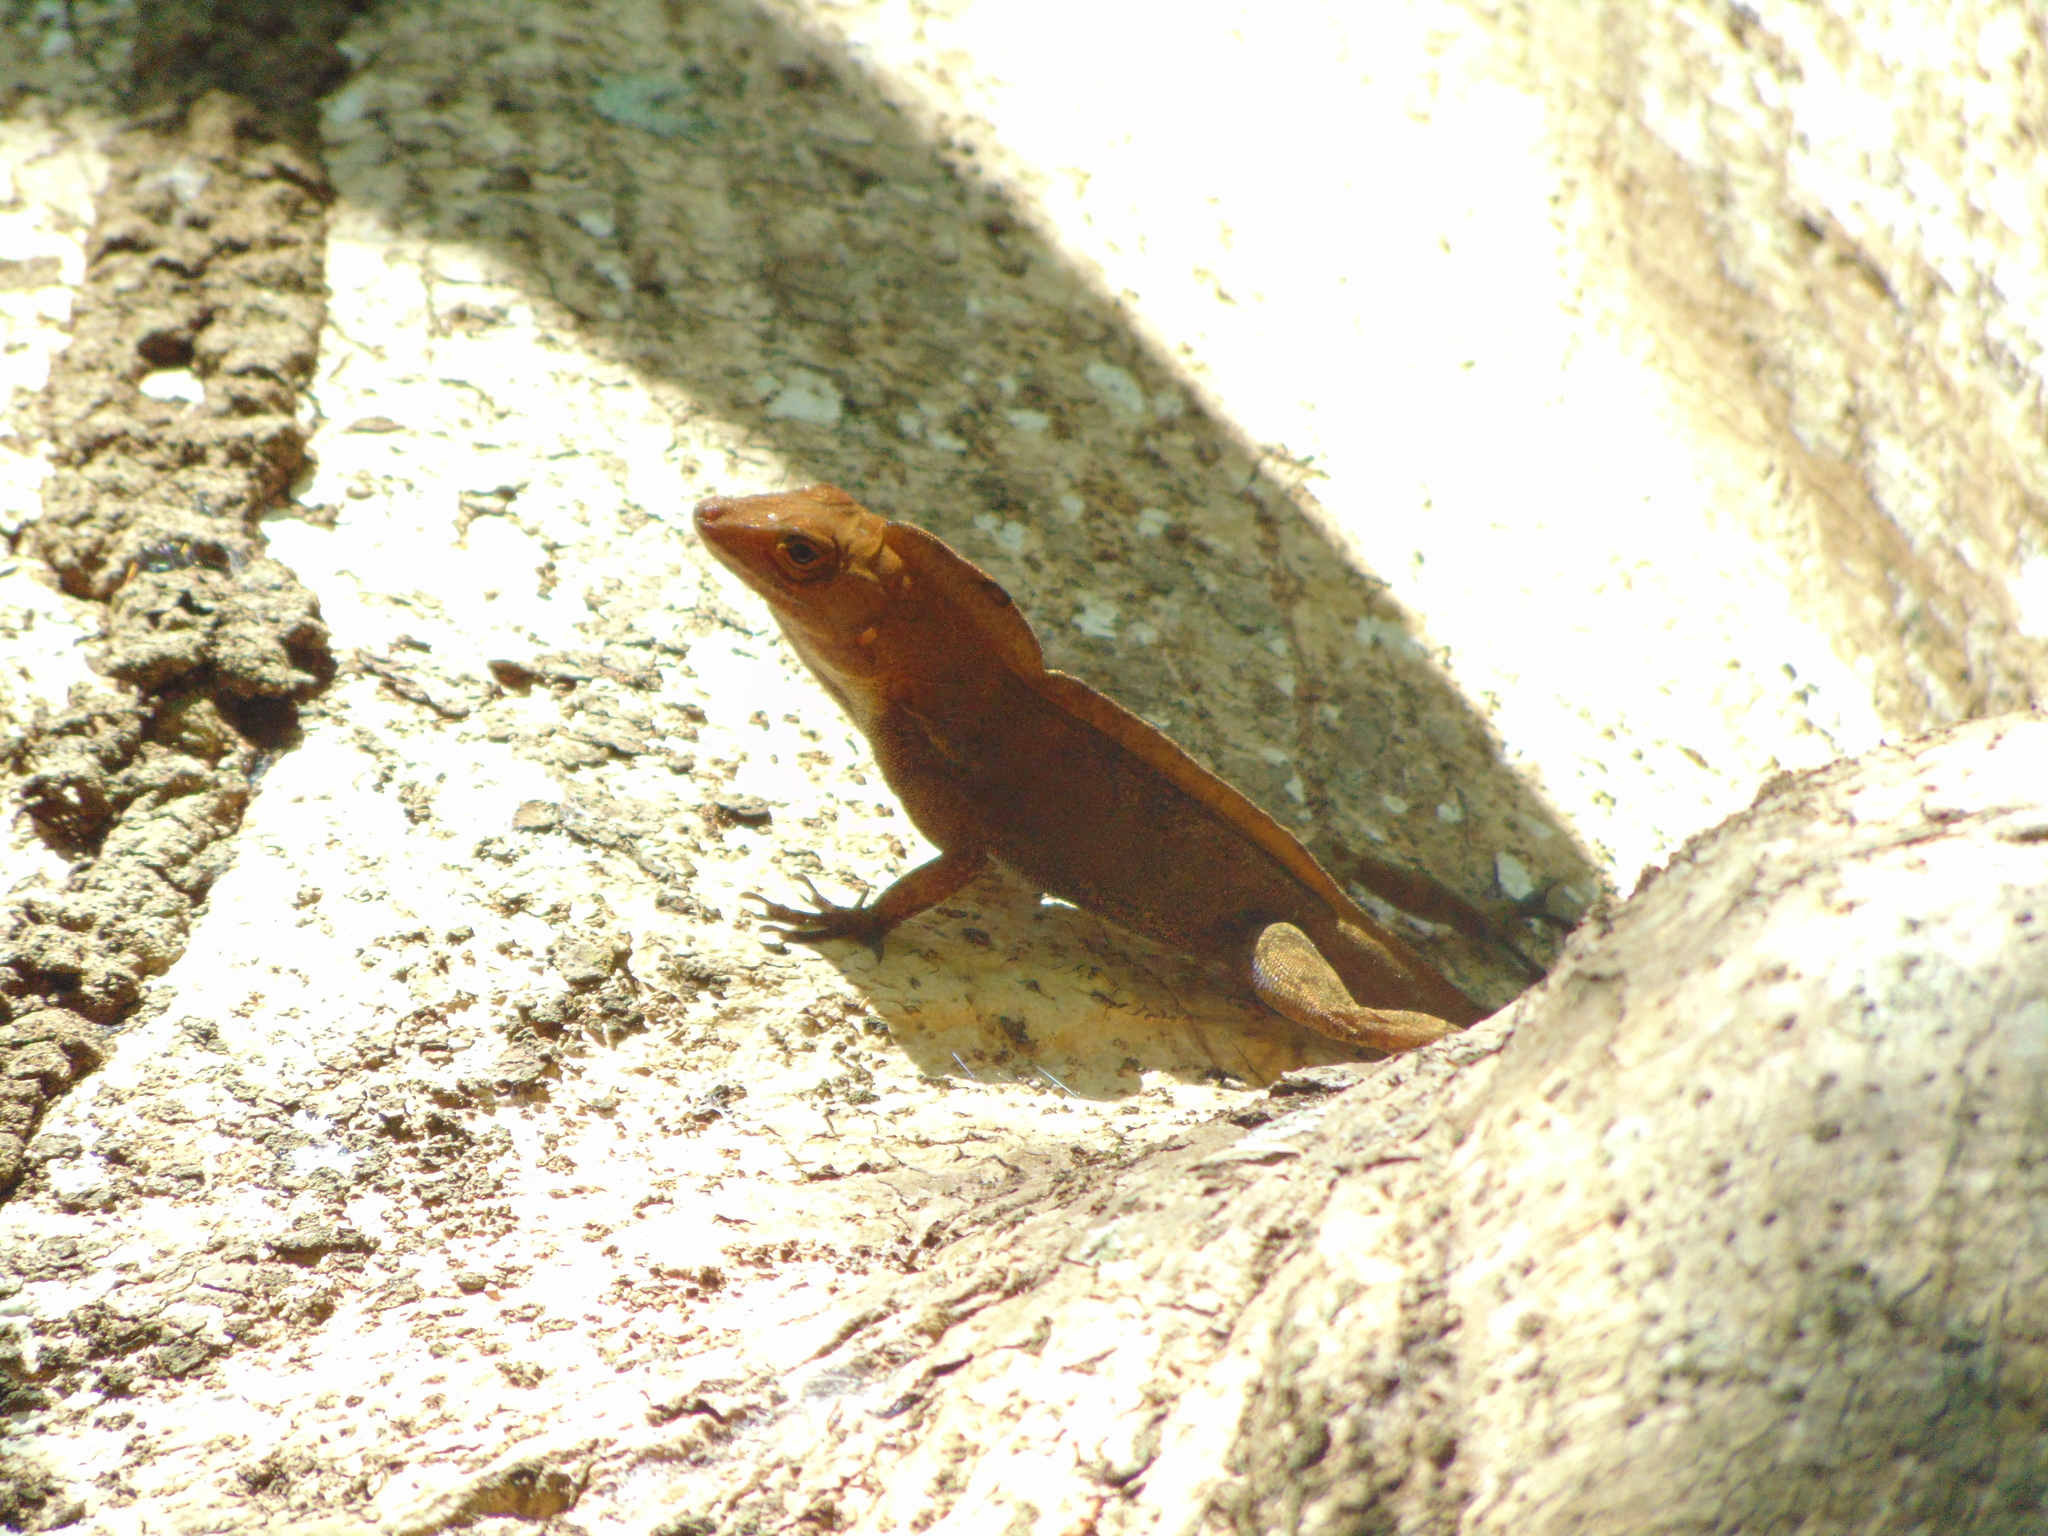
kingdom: Animalia
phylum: Chordata
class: Squamata
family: Dactyloidae
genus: Anolis
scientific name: Anolis cristatellus
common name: Crested anole
